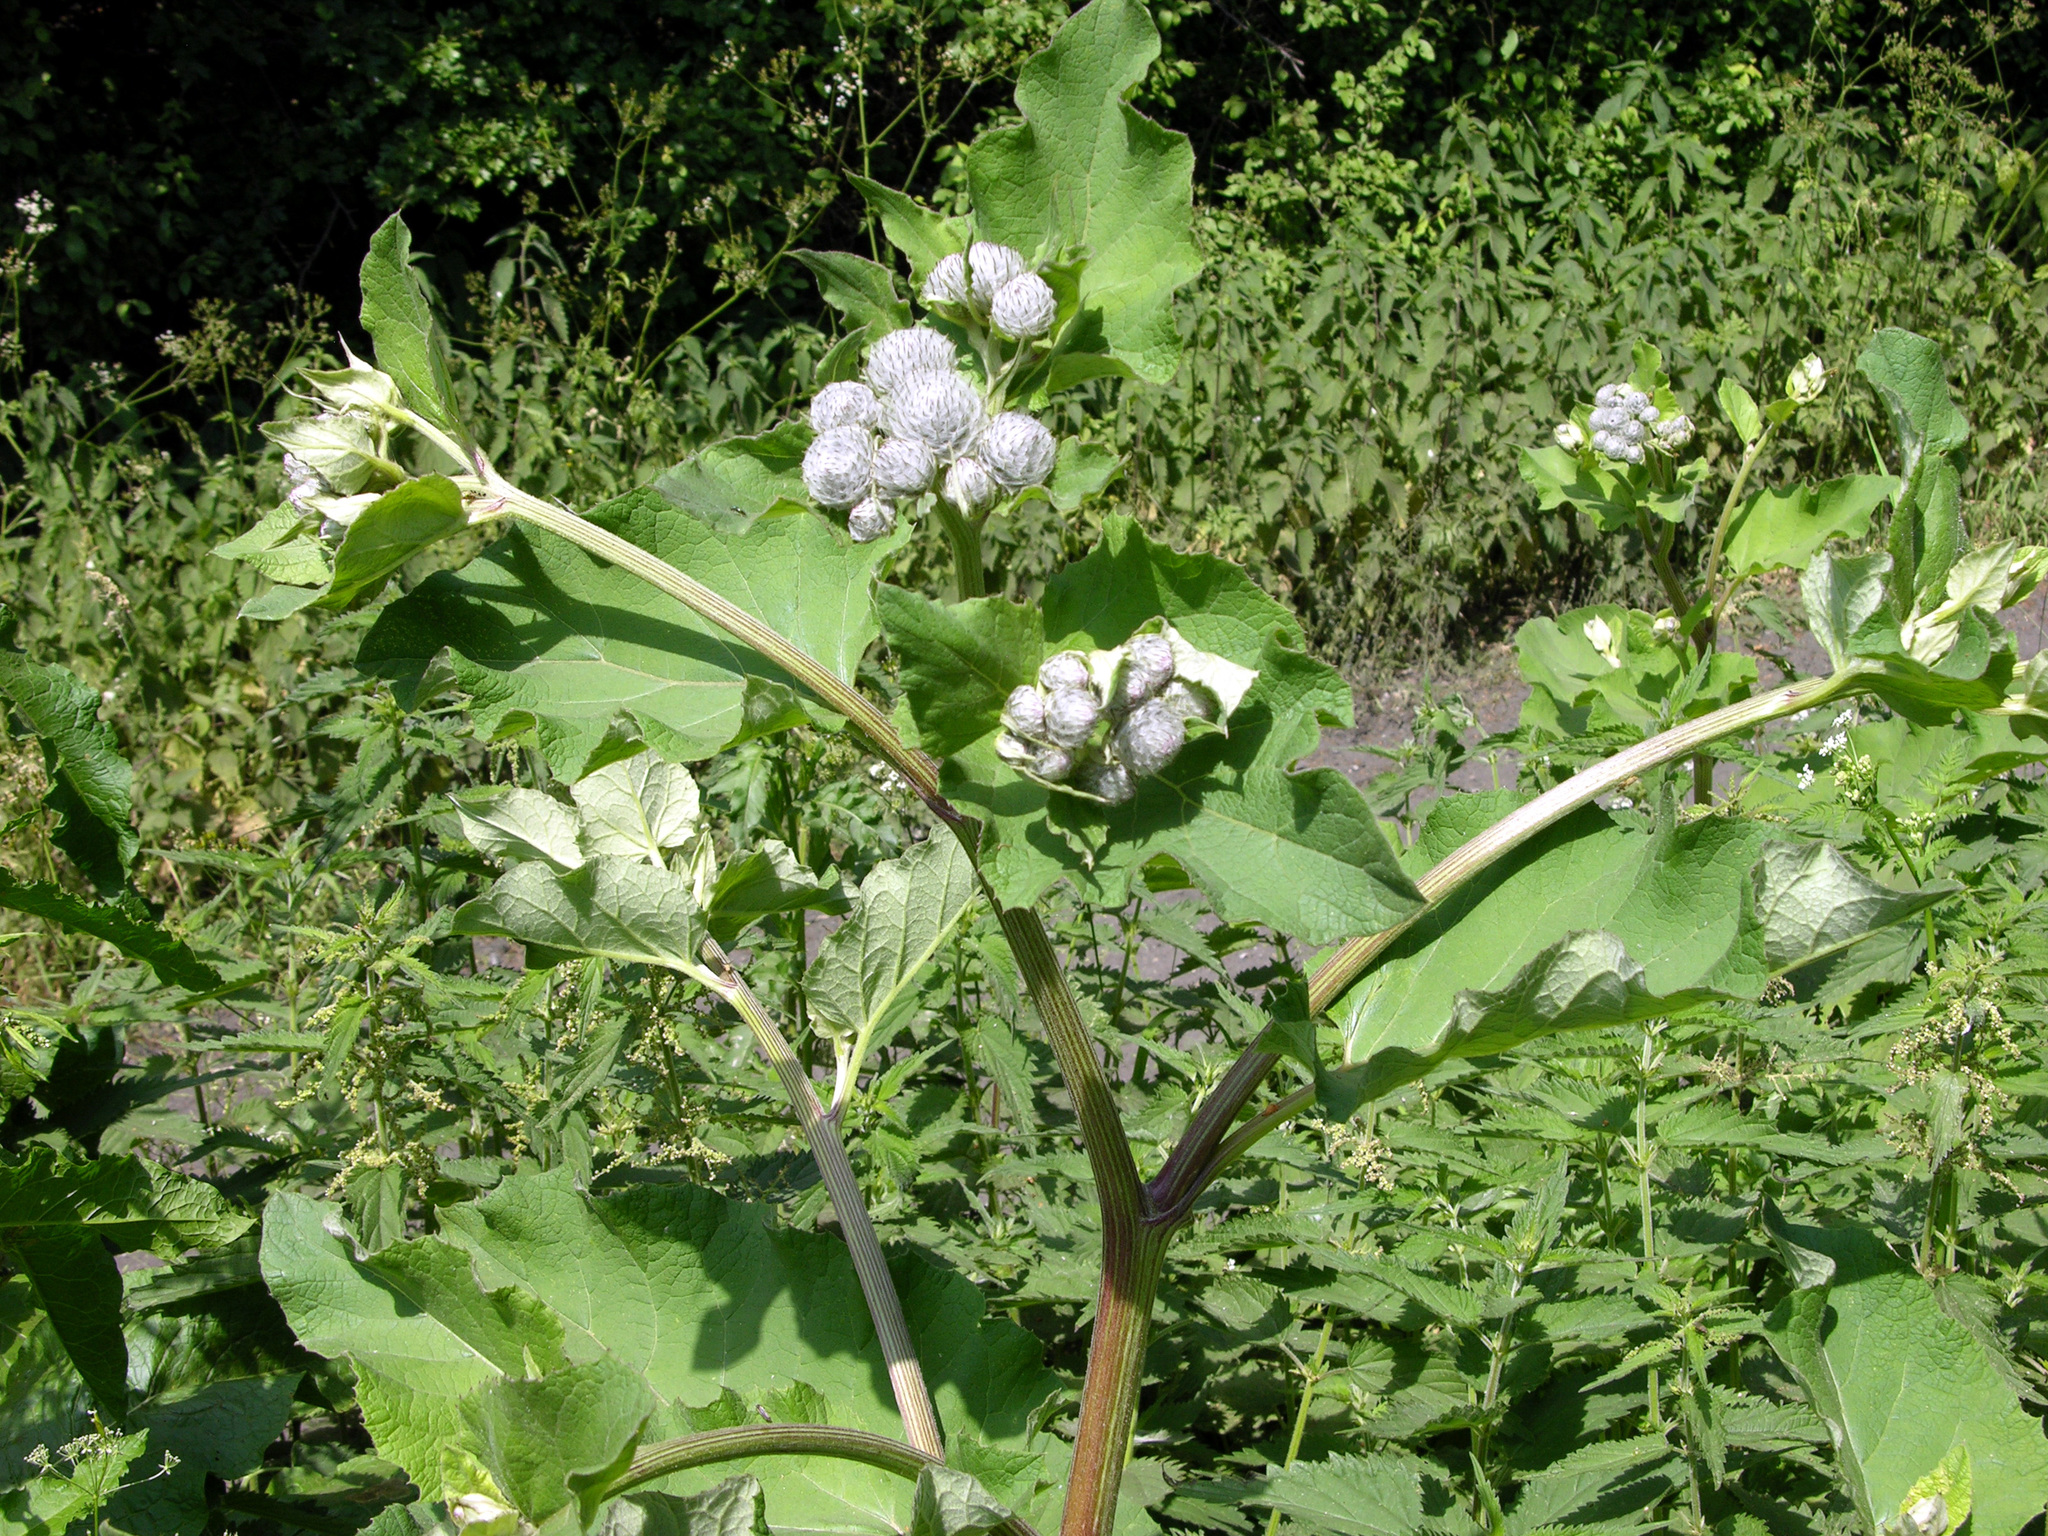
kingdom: Plantae
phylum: Tracheophyta
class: Magnoliopsida
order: Asterales
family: Asteraceae
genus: Arctium
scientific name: Arctium tomentosum
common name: Woolly burdock
